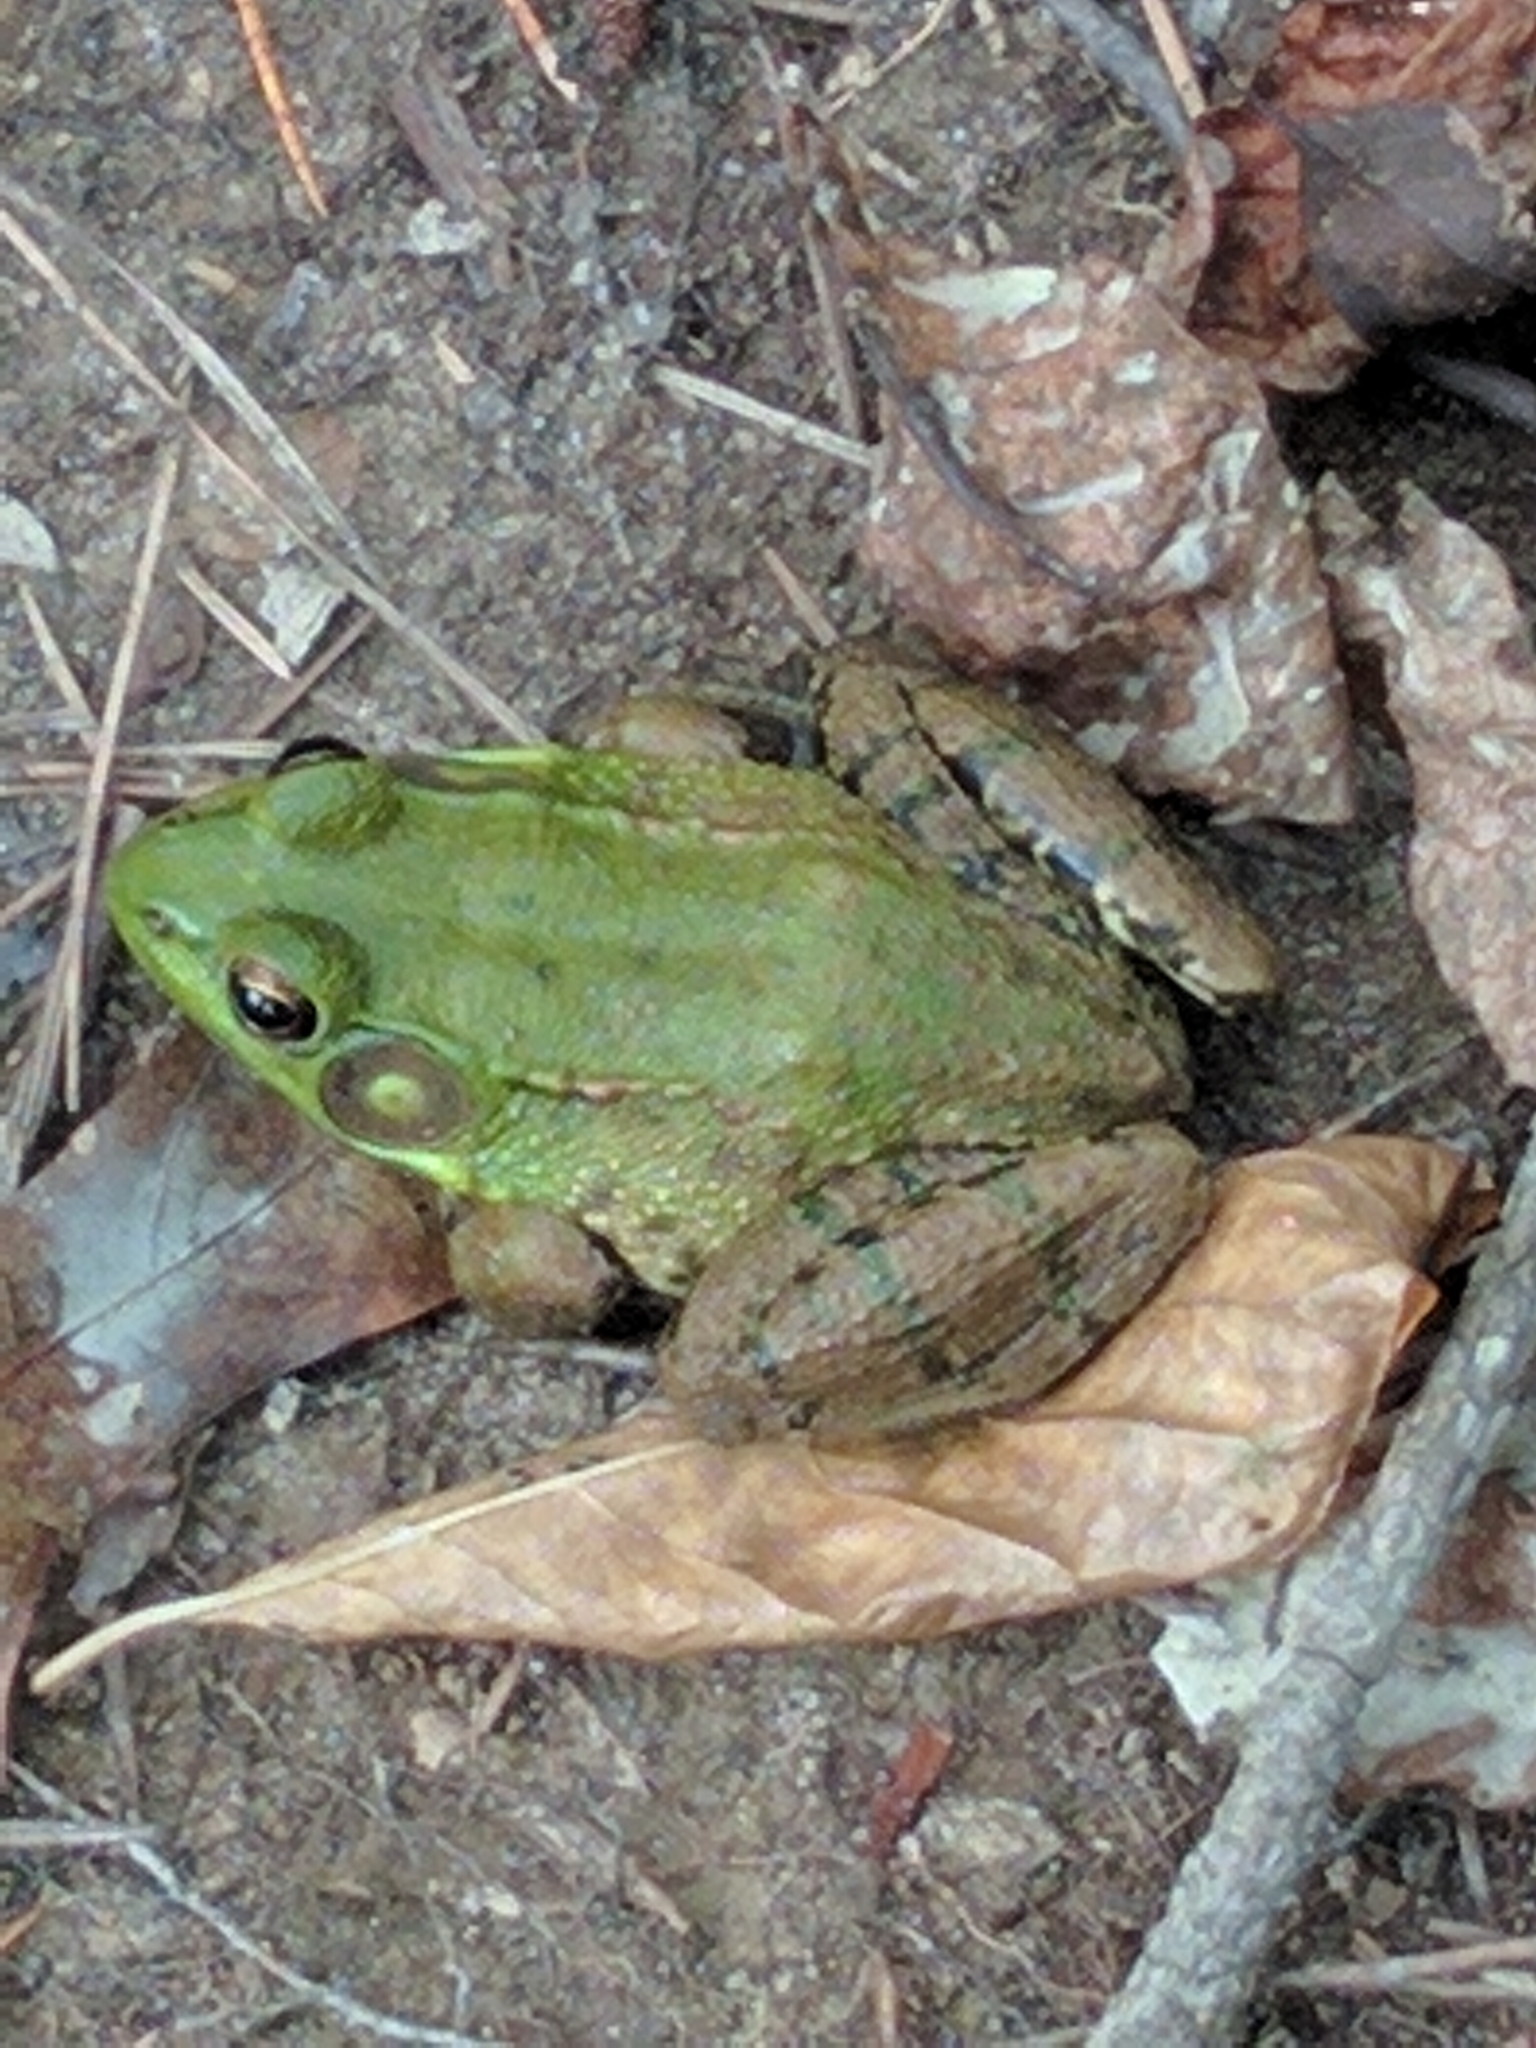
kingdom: Animalia
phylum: Chordata
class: Amphibia
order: Anura
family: Ranidae
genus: Lithobates
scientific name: Lithobates clamitans
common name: Green frog
